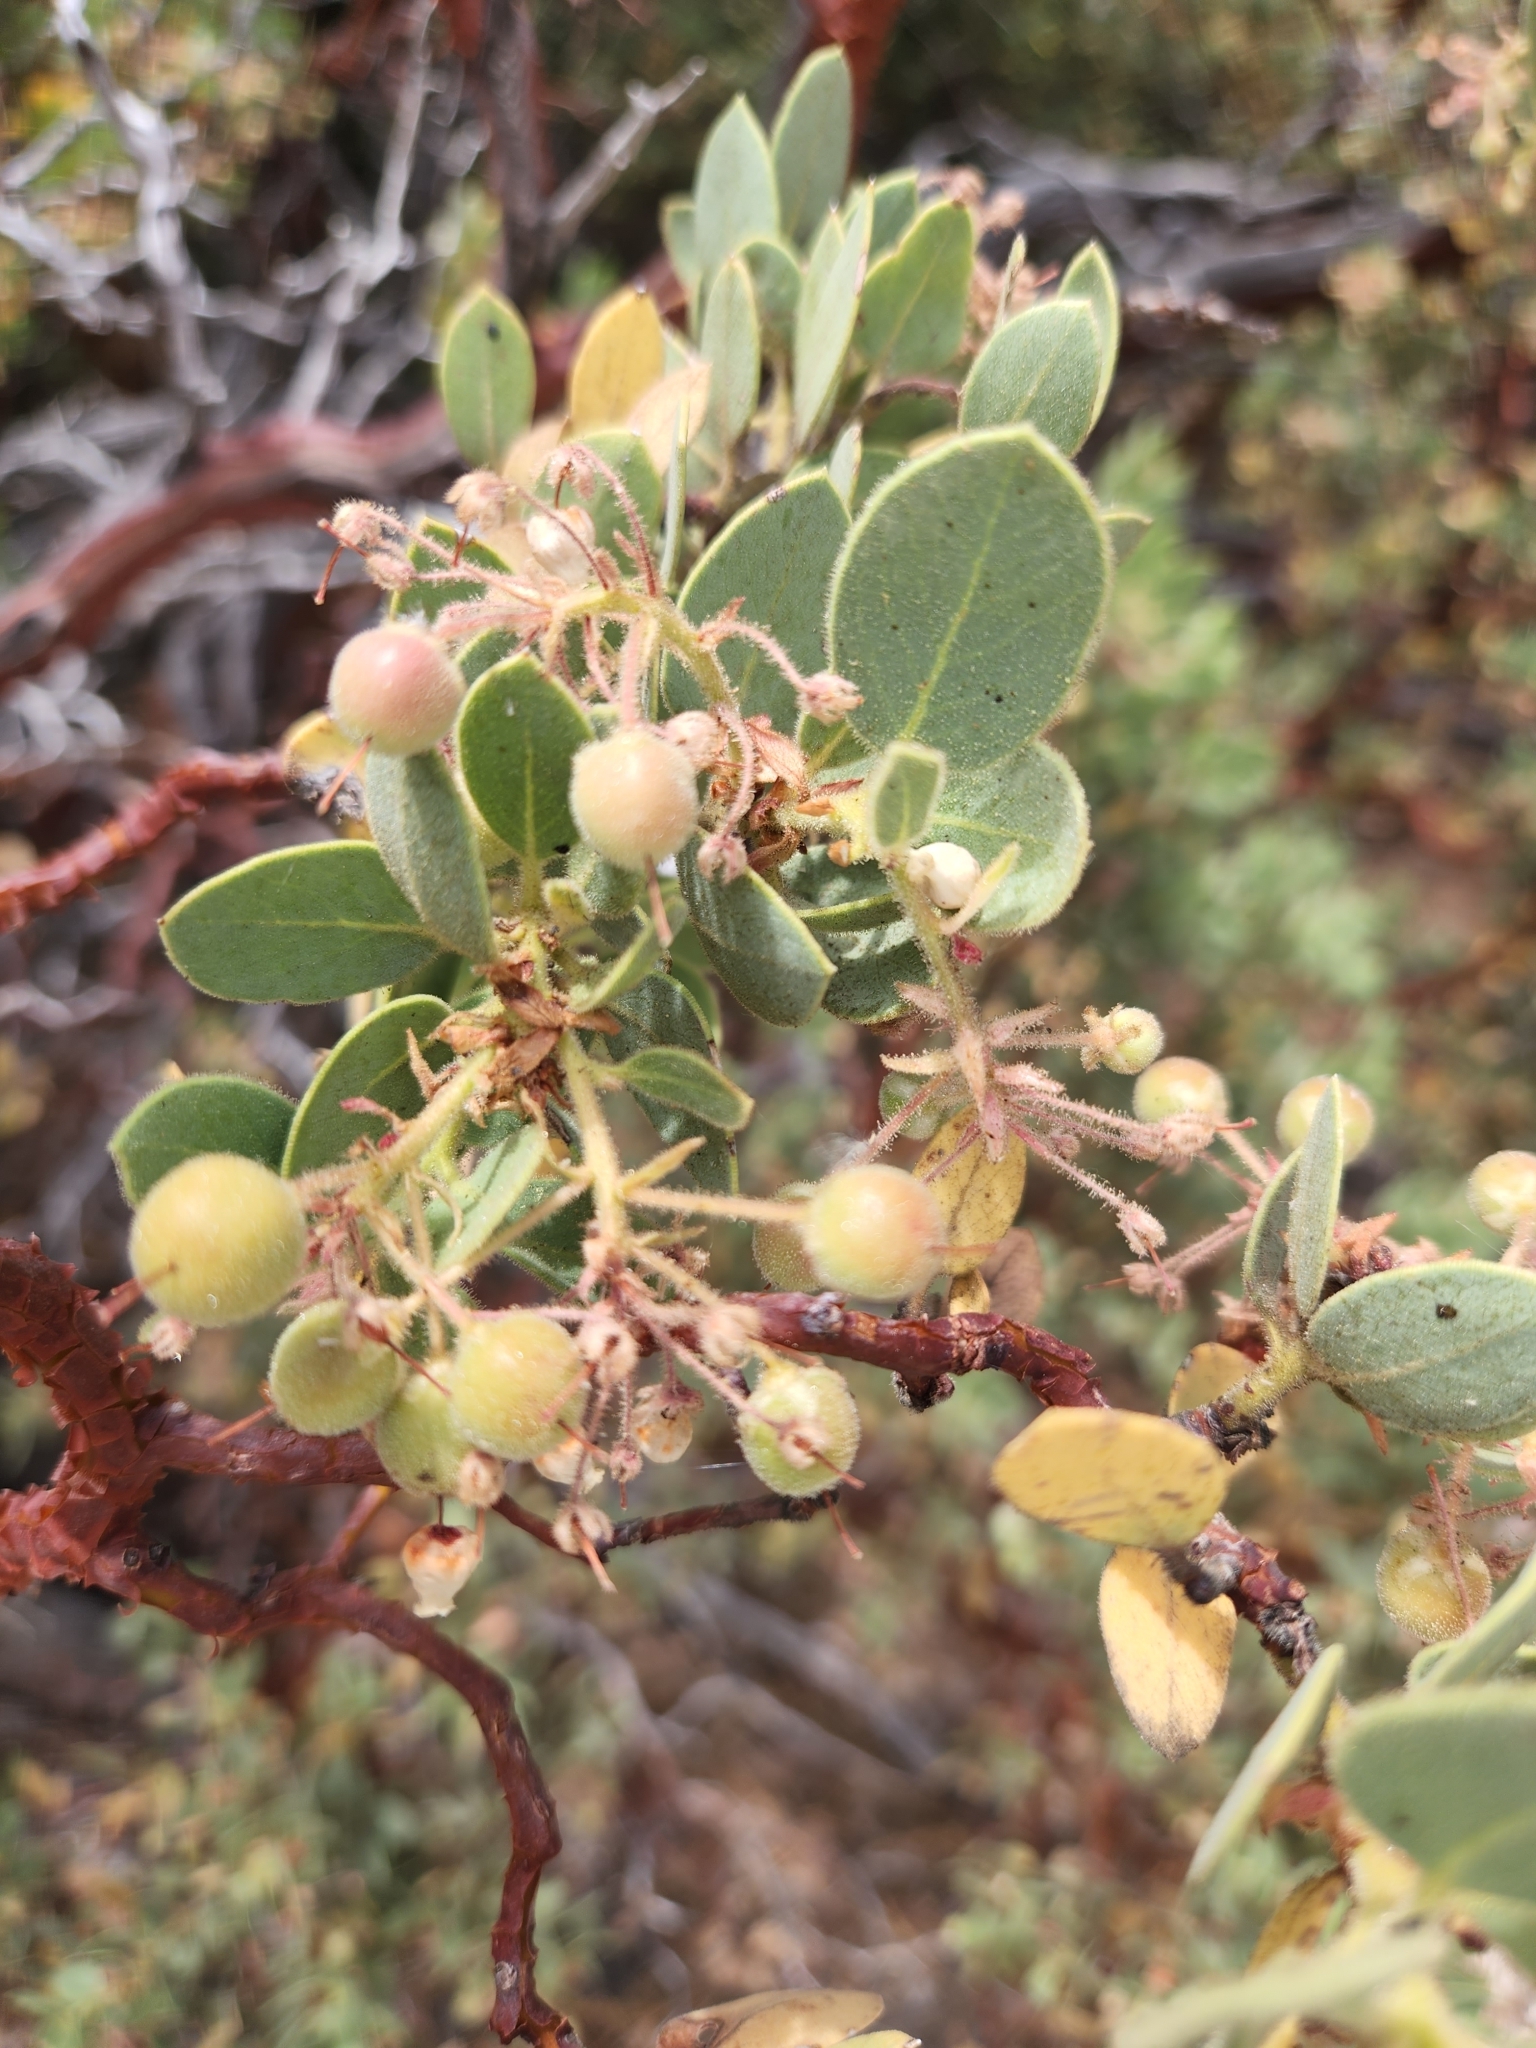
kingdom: Plantae
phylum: Tracheophyta
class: Magnoliopsida
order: Ericales
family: Ericaceae
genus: Arctostaphylos
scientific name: Arctostaphylos pringlei
